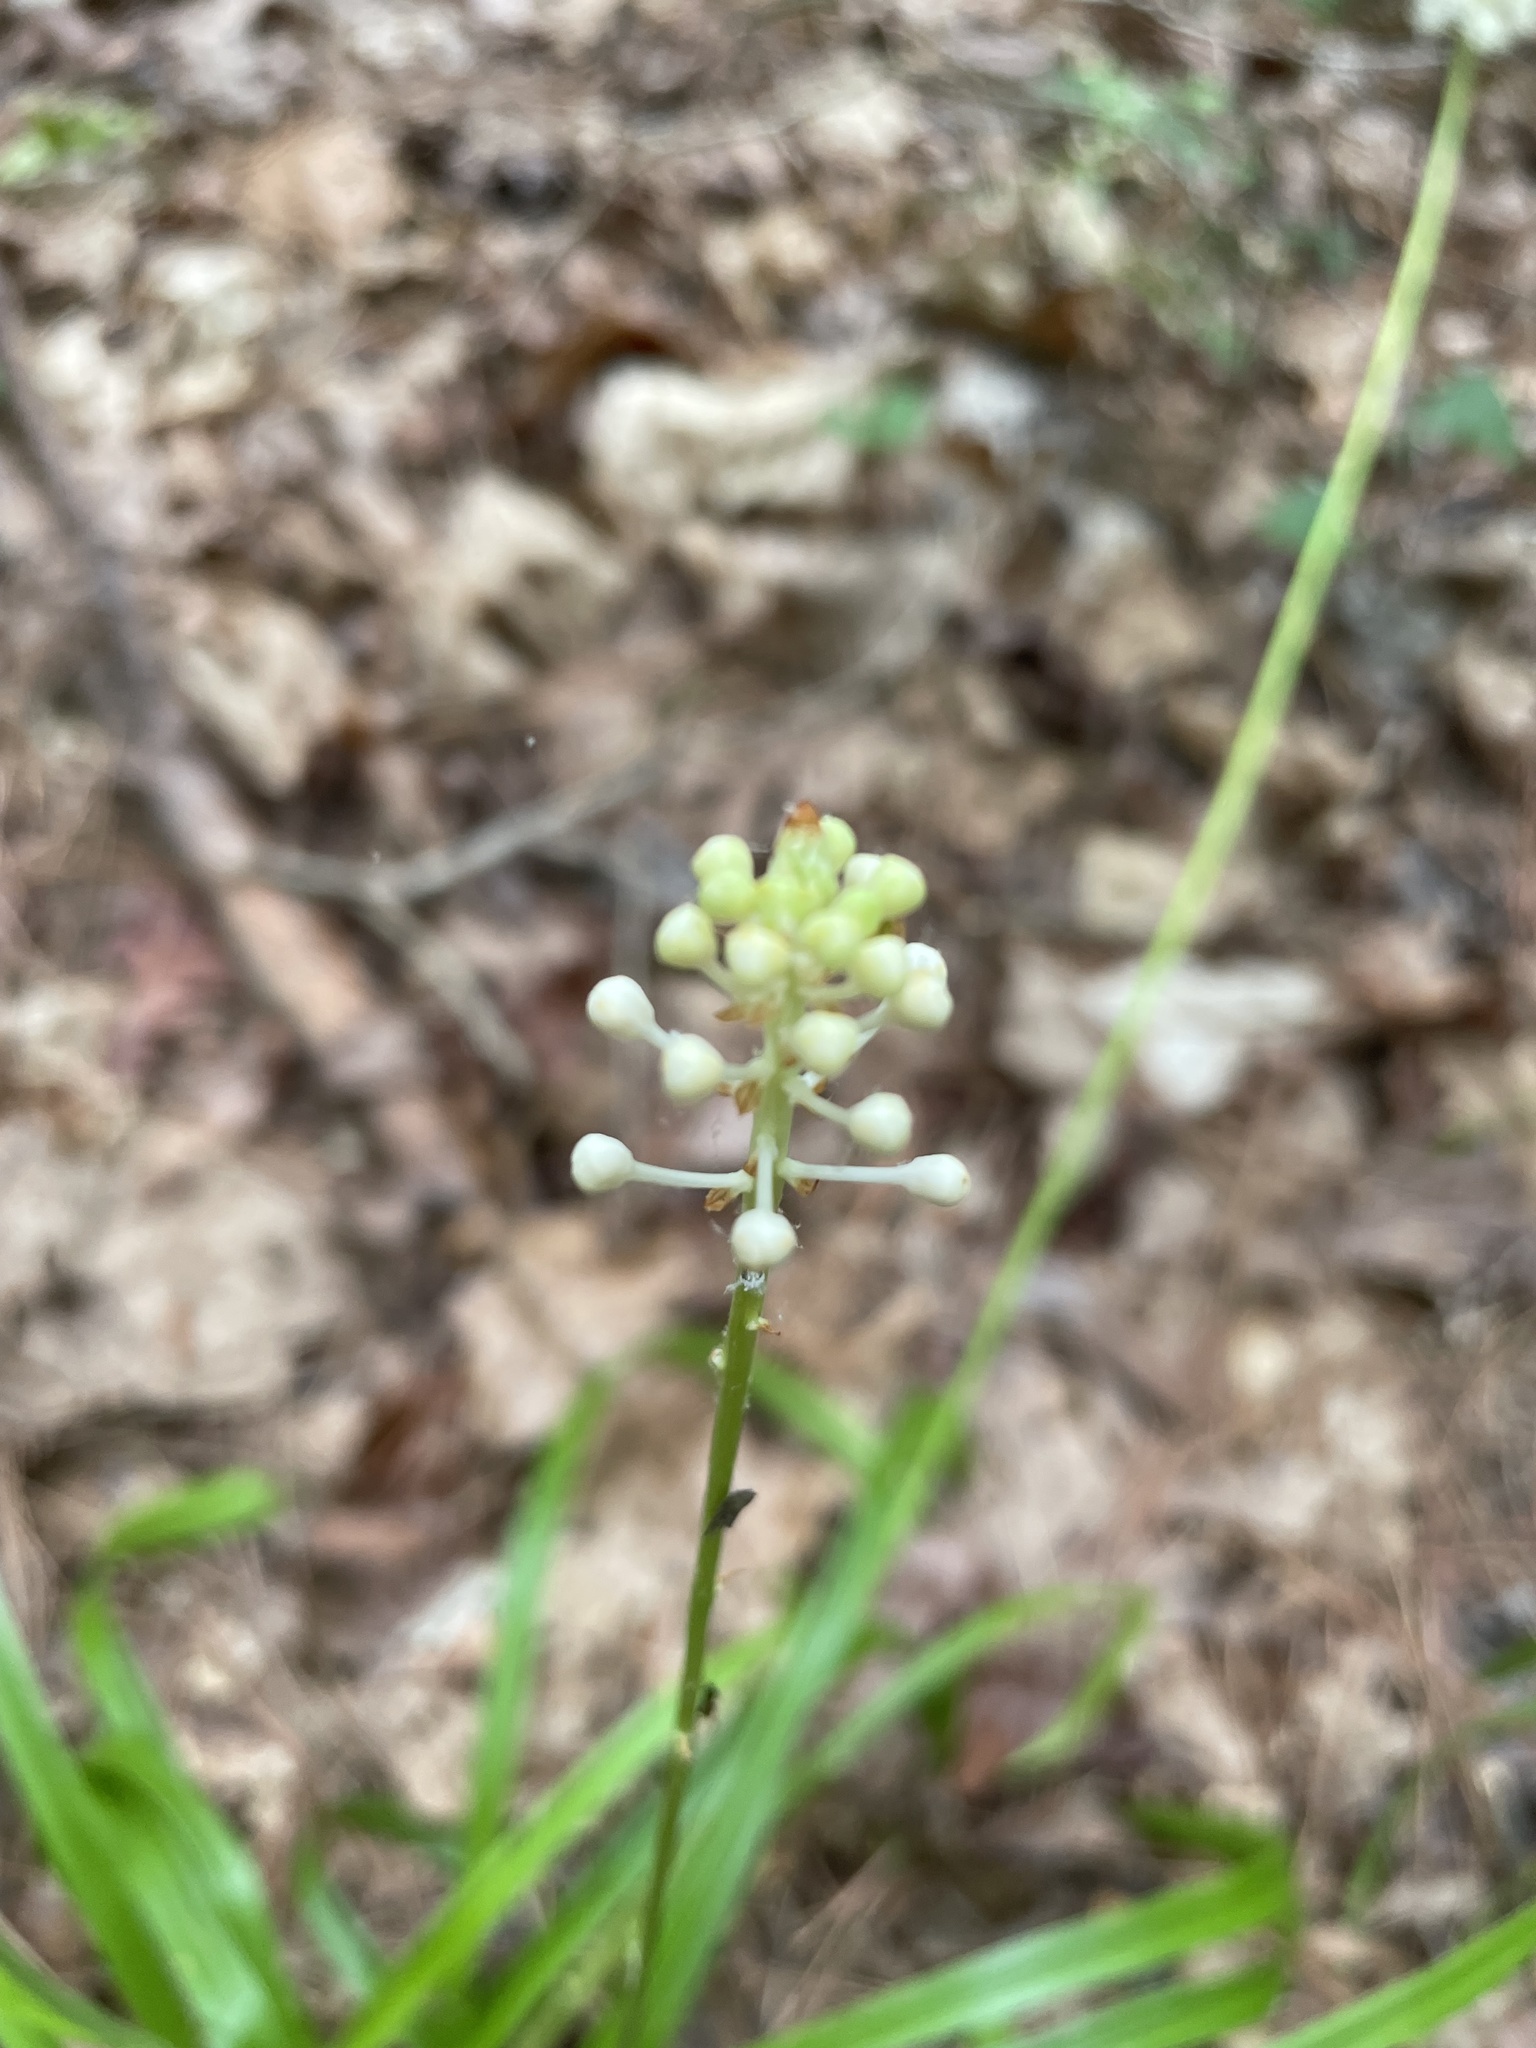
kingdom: Plantae
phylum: Tracheophyta
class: Liliopsida
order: Liliales
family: Melanthiaceae
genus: Amianthium
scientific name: Amianthium muscitoxicum
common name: Fly-poison
